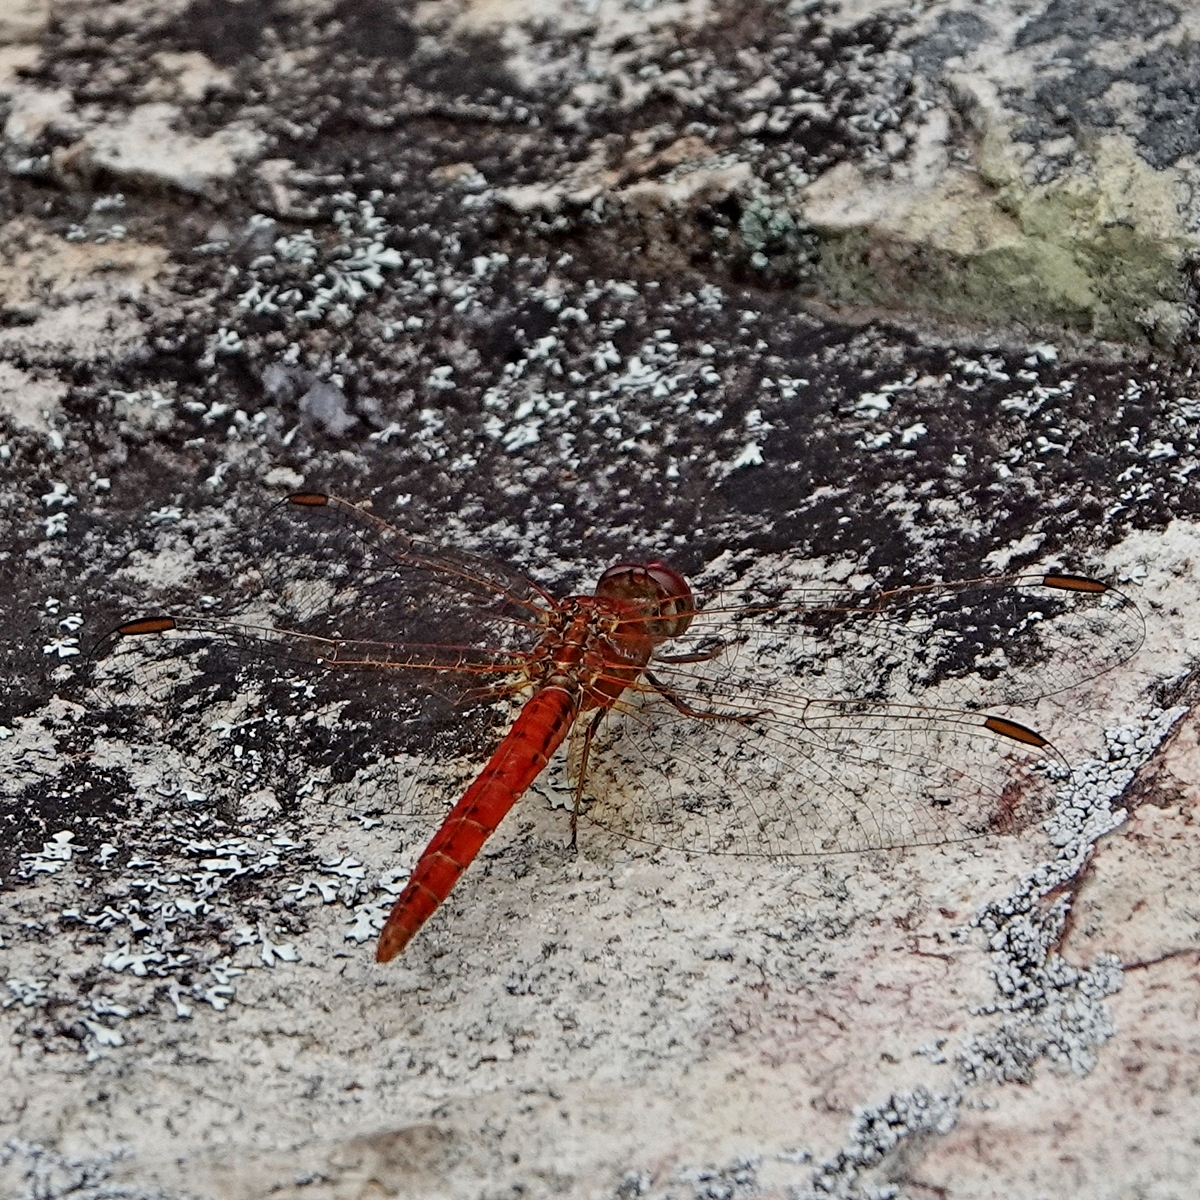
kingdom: Animalia
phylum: Arthropoda
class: Insecta
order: Odonata
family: Libellulidae
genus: Diplacodes
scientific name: Diplacodes haematodes
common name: Scarlet percher
